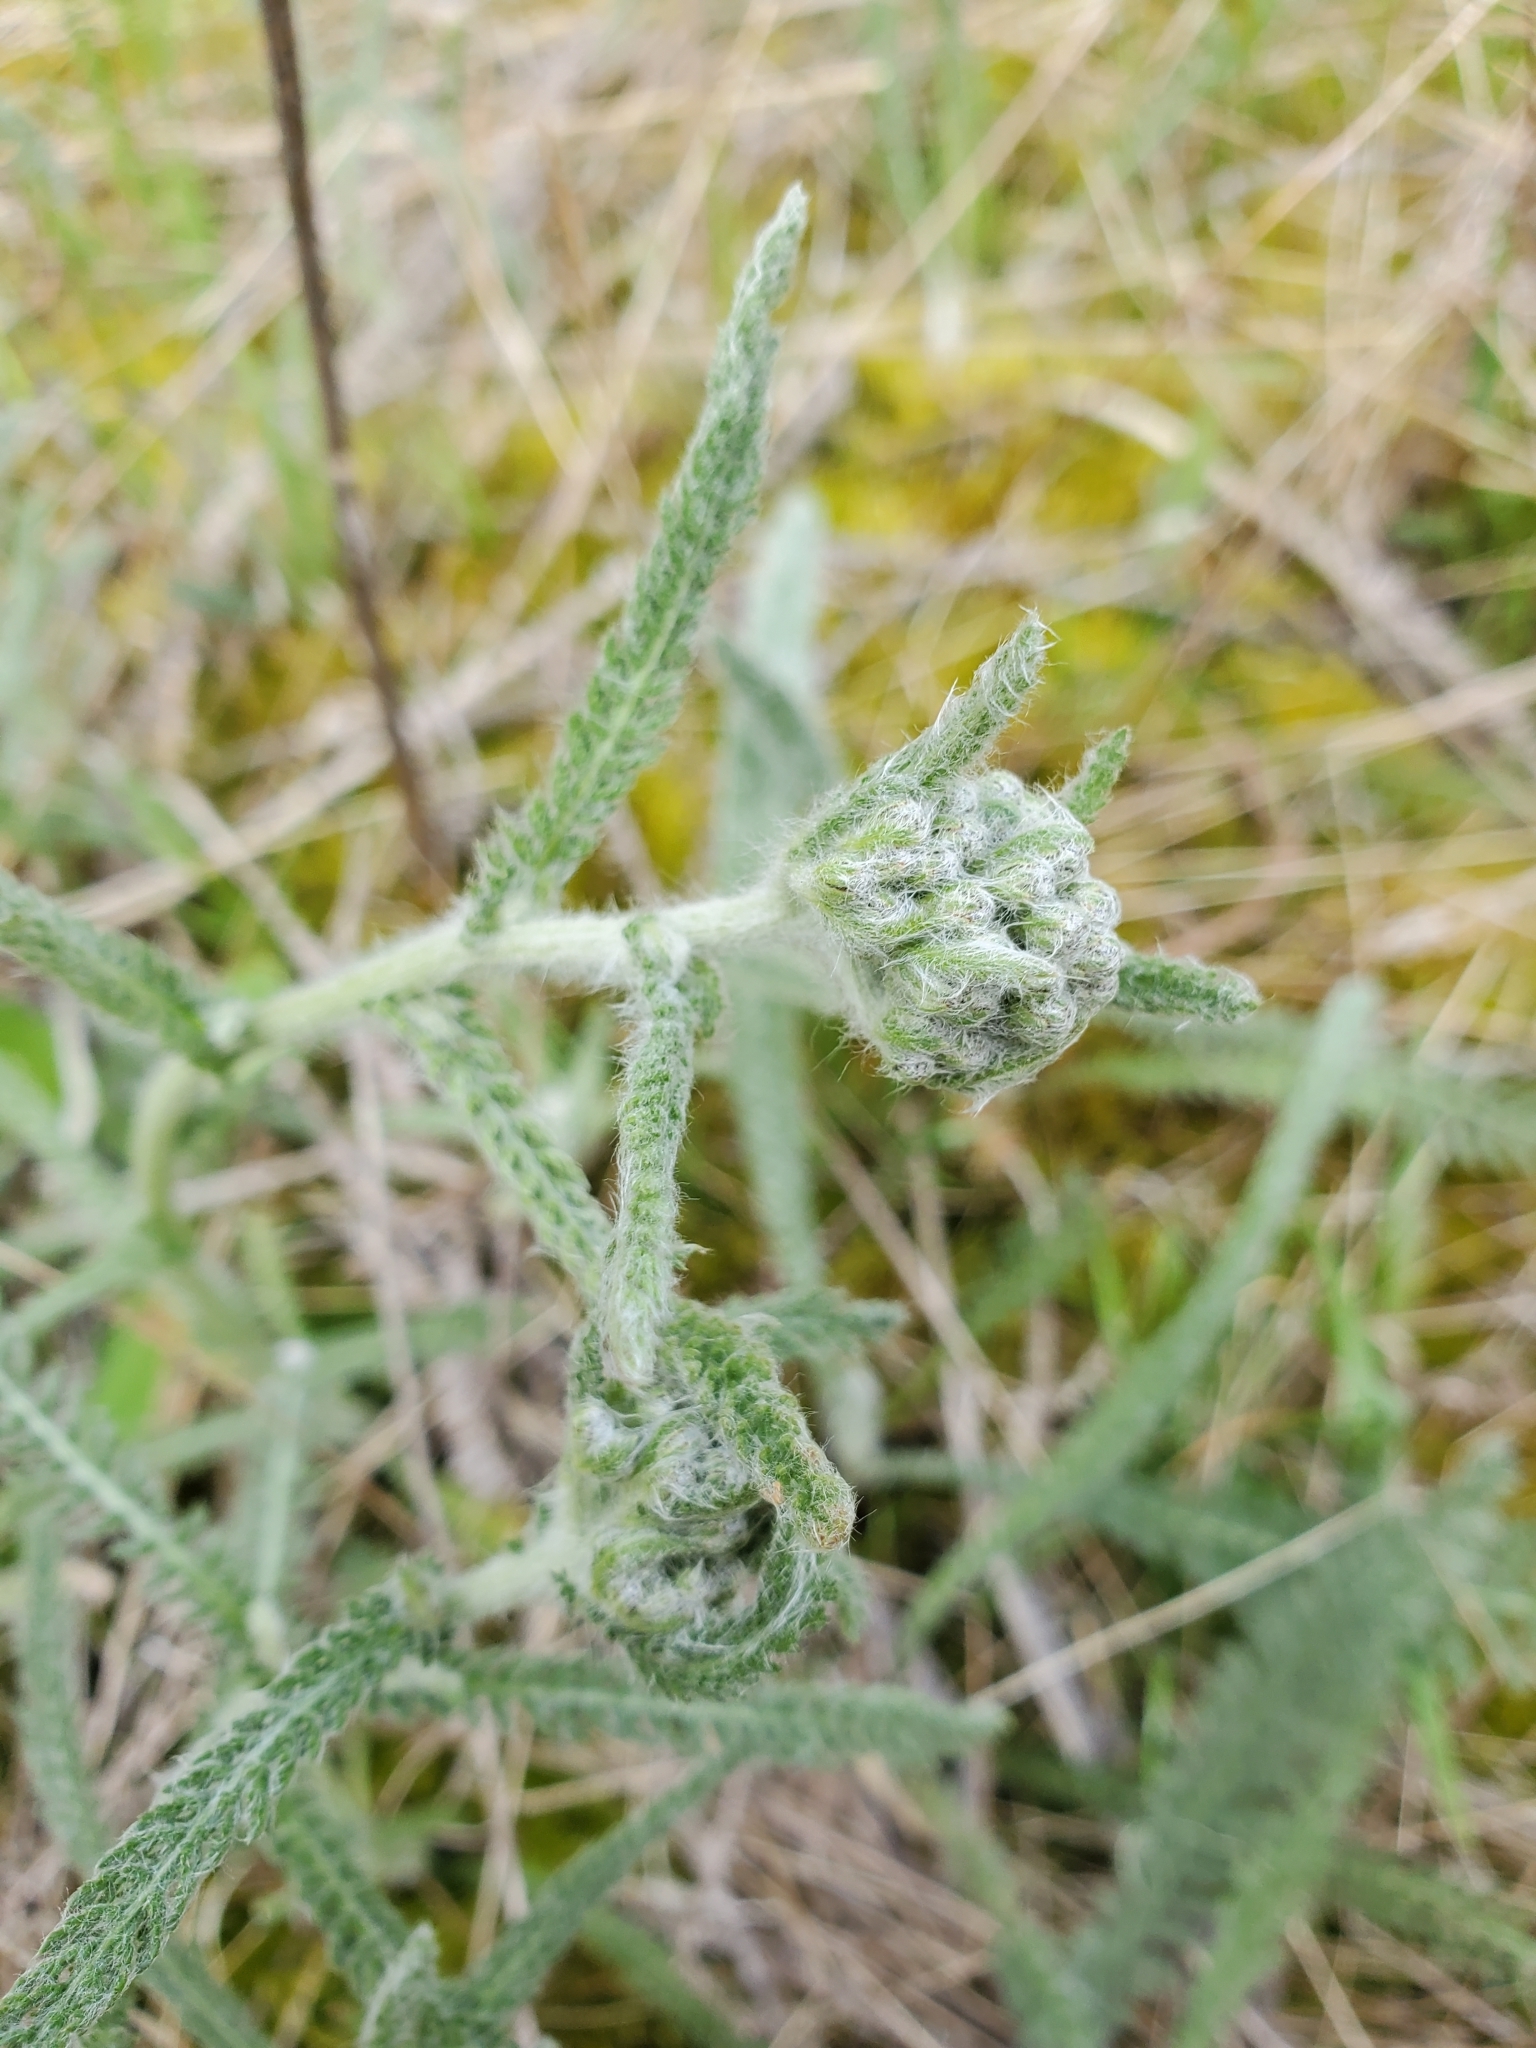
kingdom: Plantae
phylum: Tracheophyta
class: Magnoliopsida
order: Asterales
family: Asteraceae
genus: Achillea
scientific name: Achillea millefolium
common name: Yarrow
